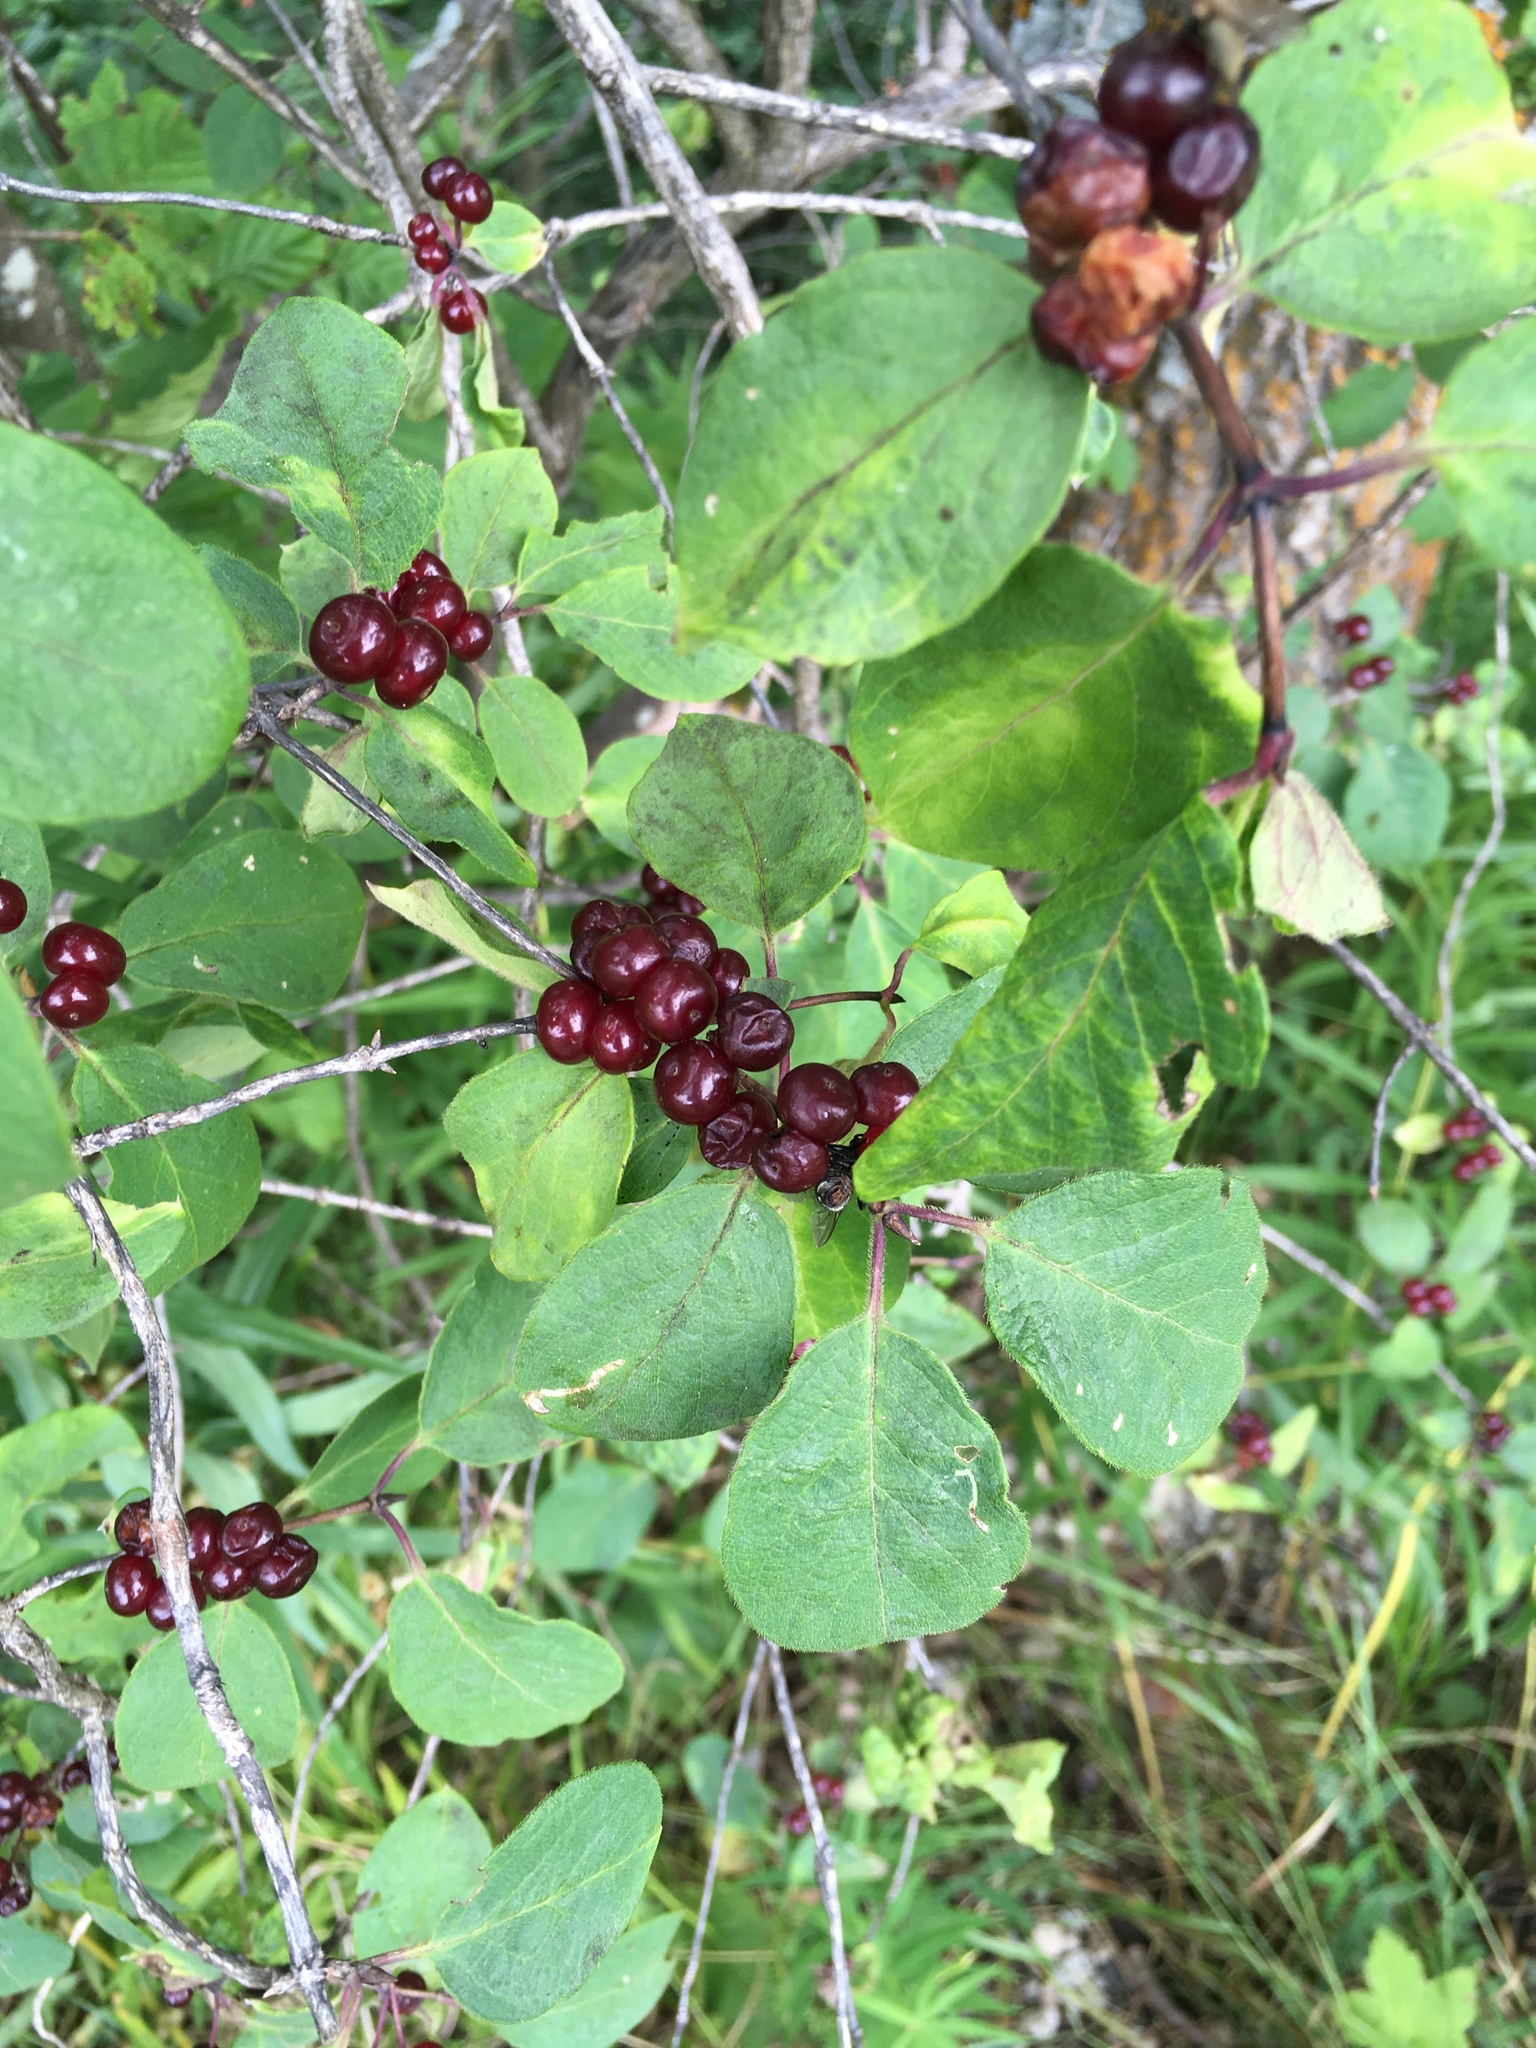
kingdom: Plantae
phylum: Tracheophyta
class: Magnoliopsida
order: Dipsacales
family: Caprifoliaceae
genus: Lonicera
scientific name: Lonicera xylosteum
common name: Fly honeysuckle
